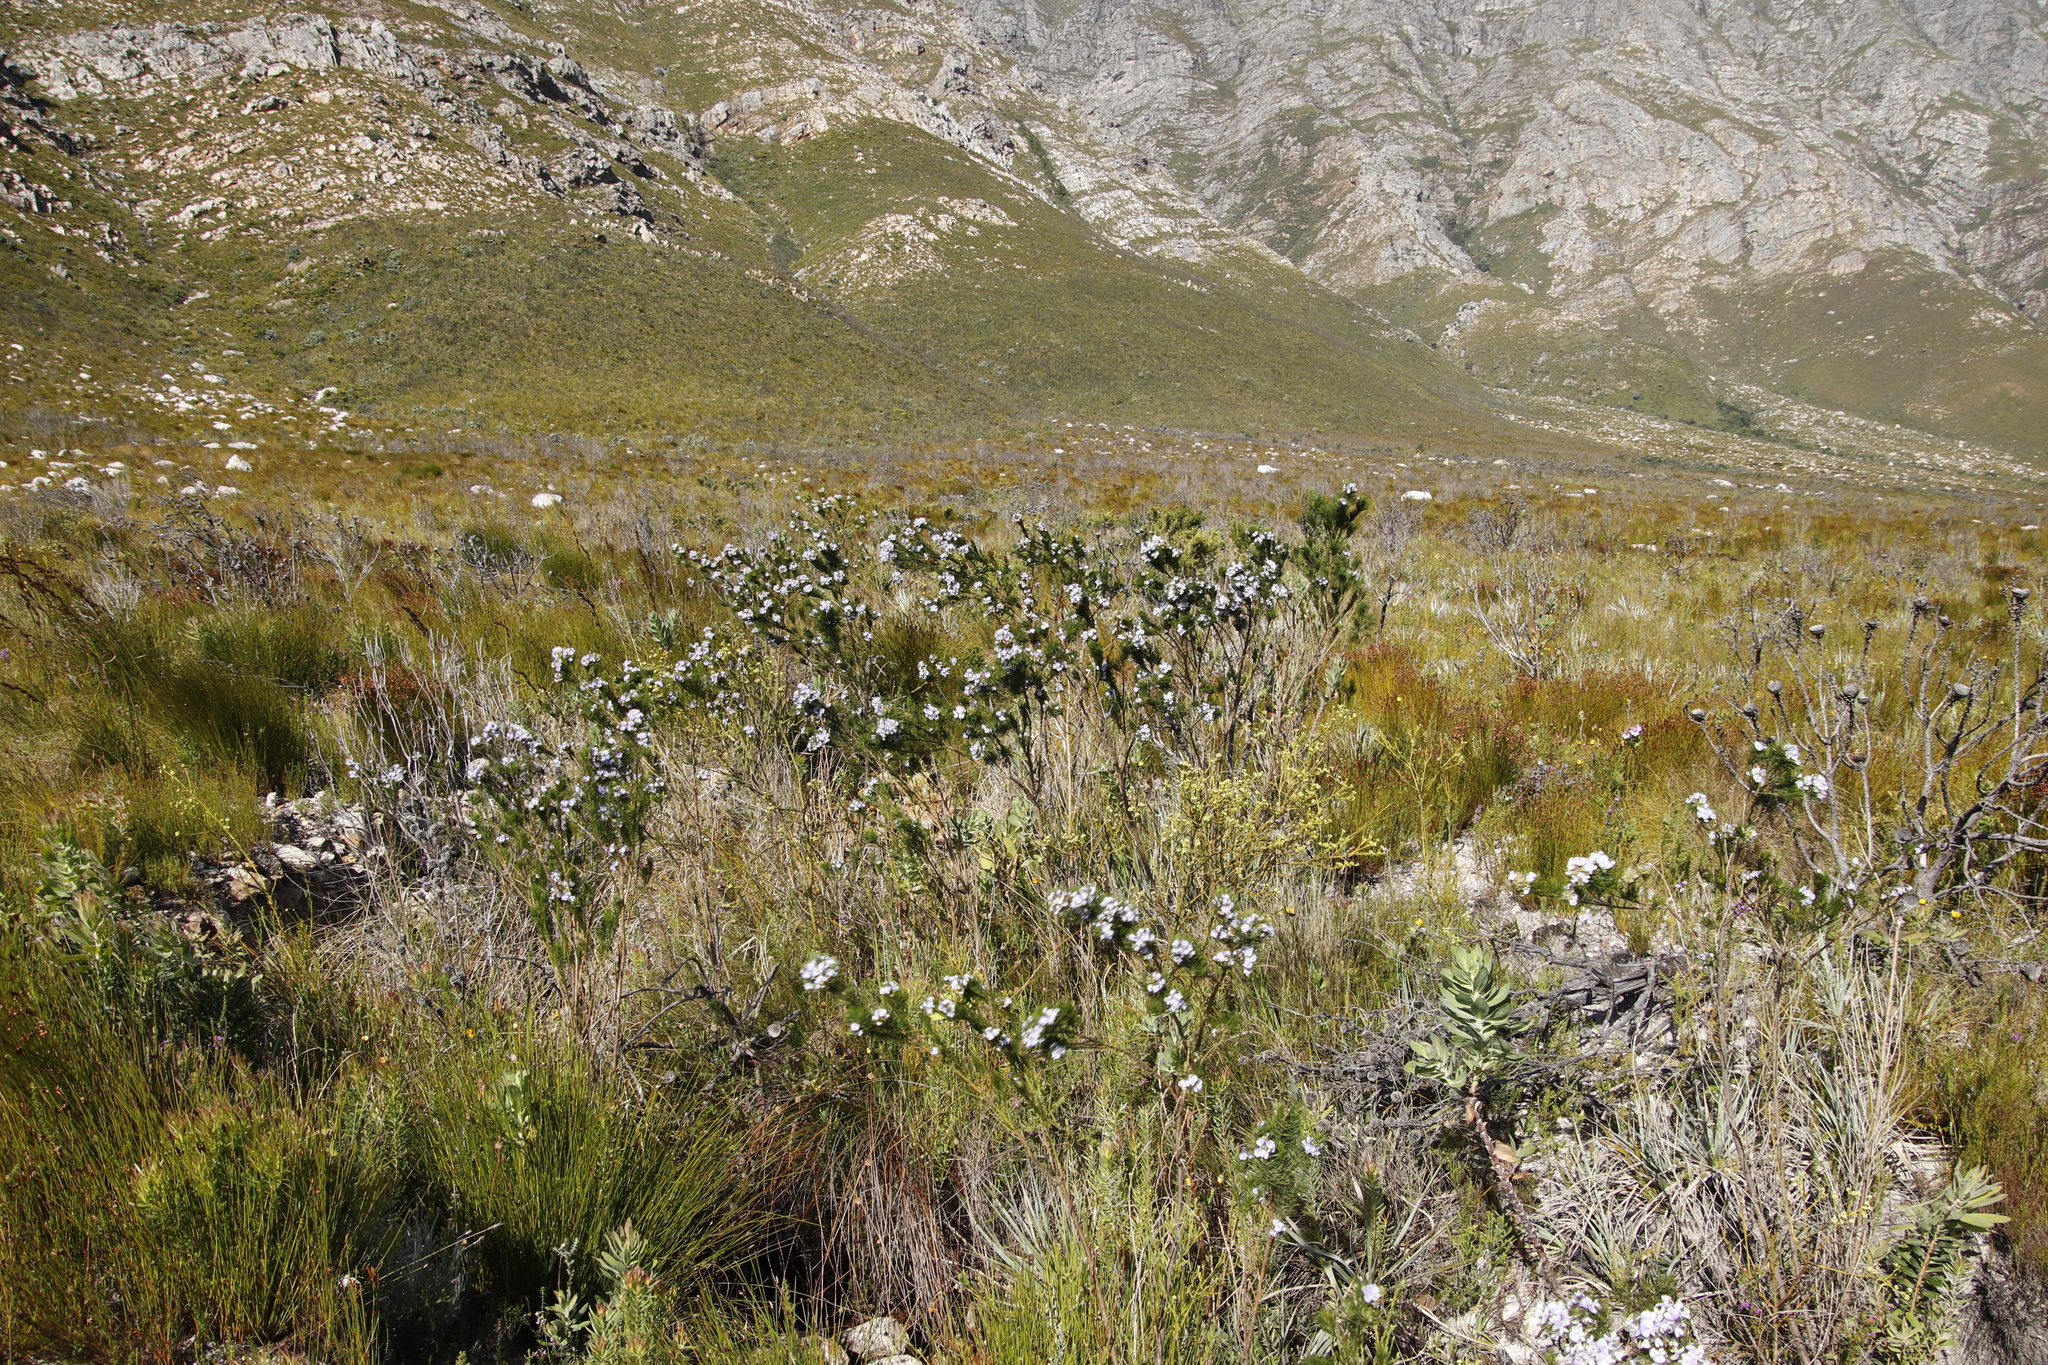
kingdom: Plantae
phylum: Tracheophyta
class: Magnoliopsida
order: Fabales
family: Fabaceae
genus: Psoralea
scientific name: Psoralea ivumba
